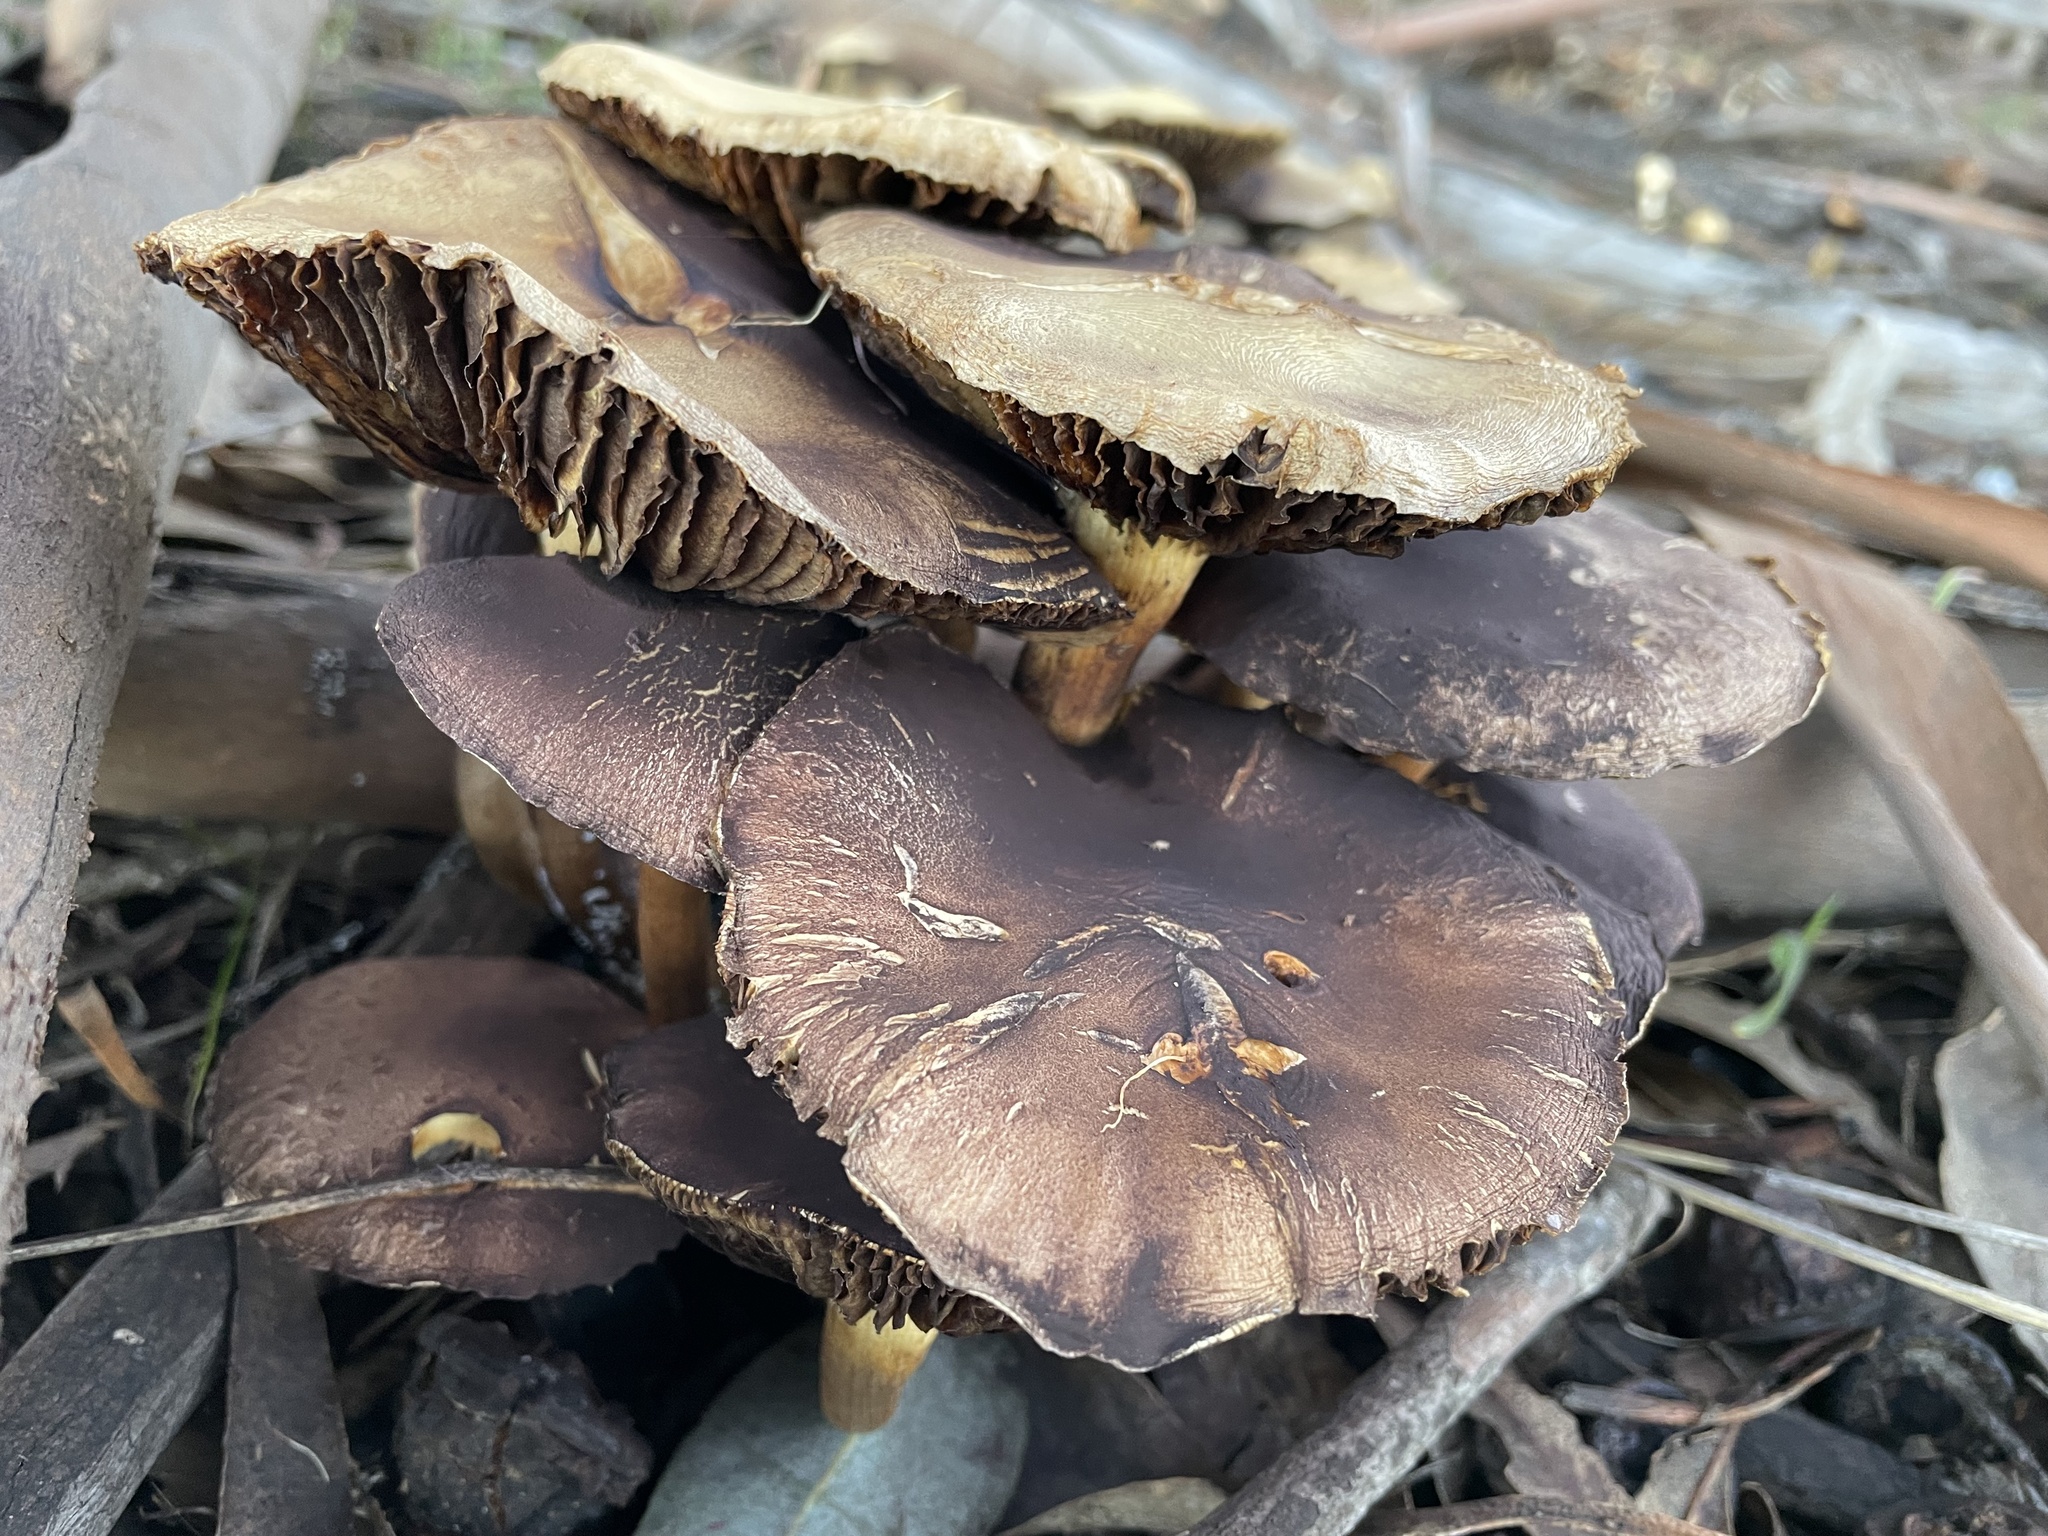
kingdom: Fungi
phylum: Basidiomycota
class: Agaricomycetes
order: Agaricales
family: Strophariaceae
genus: Leratiomyces
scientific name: Leratiomyces percevalii
